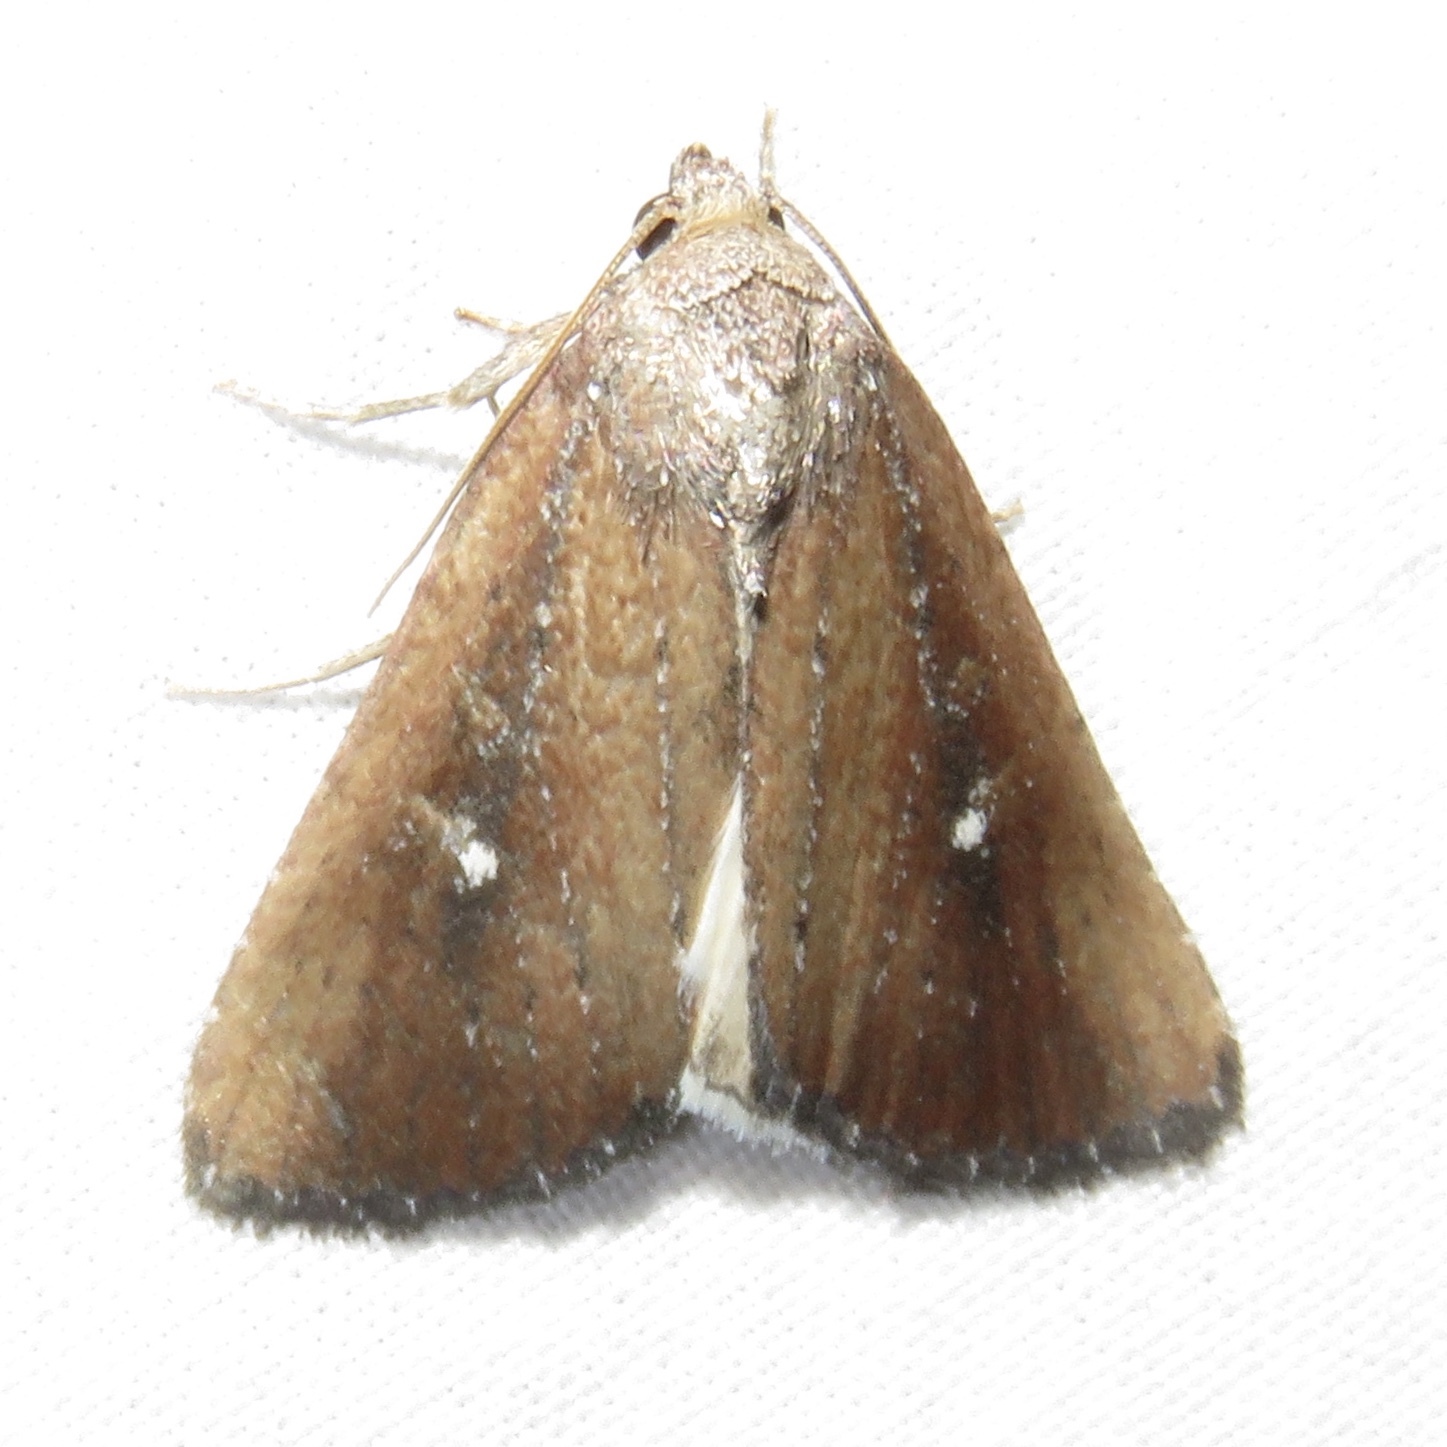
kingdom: Animalia
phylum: Arthropoda
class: Insecta
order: Lepidoptera
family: Noctuidae
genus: Condica
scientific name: Condica videns
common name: White-dotted groundling
